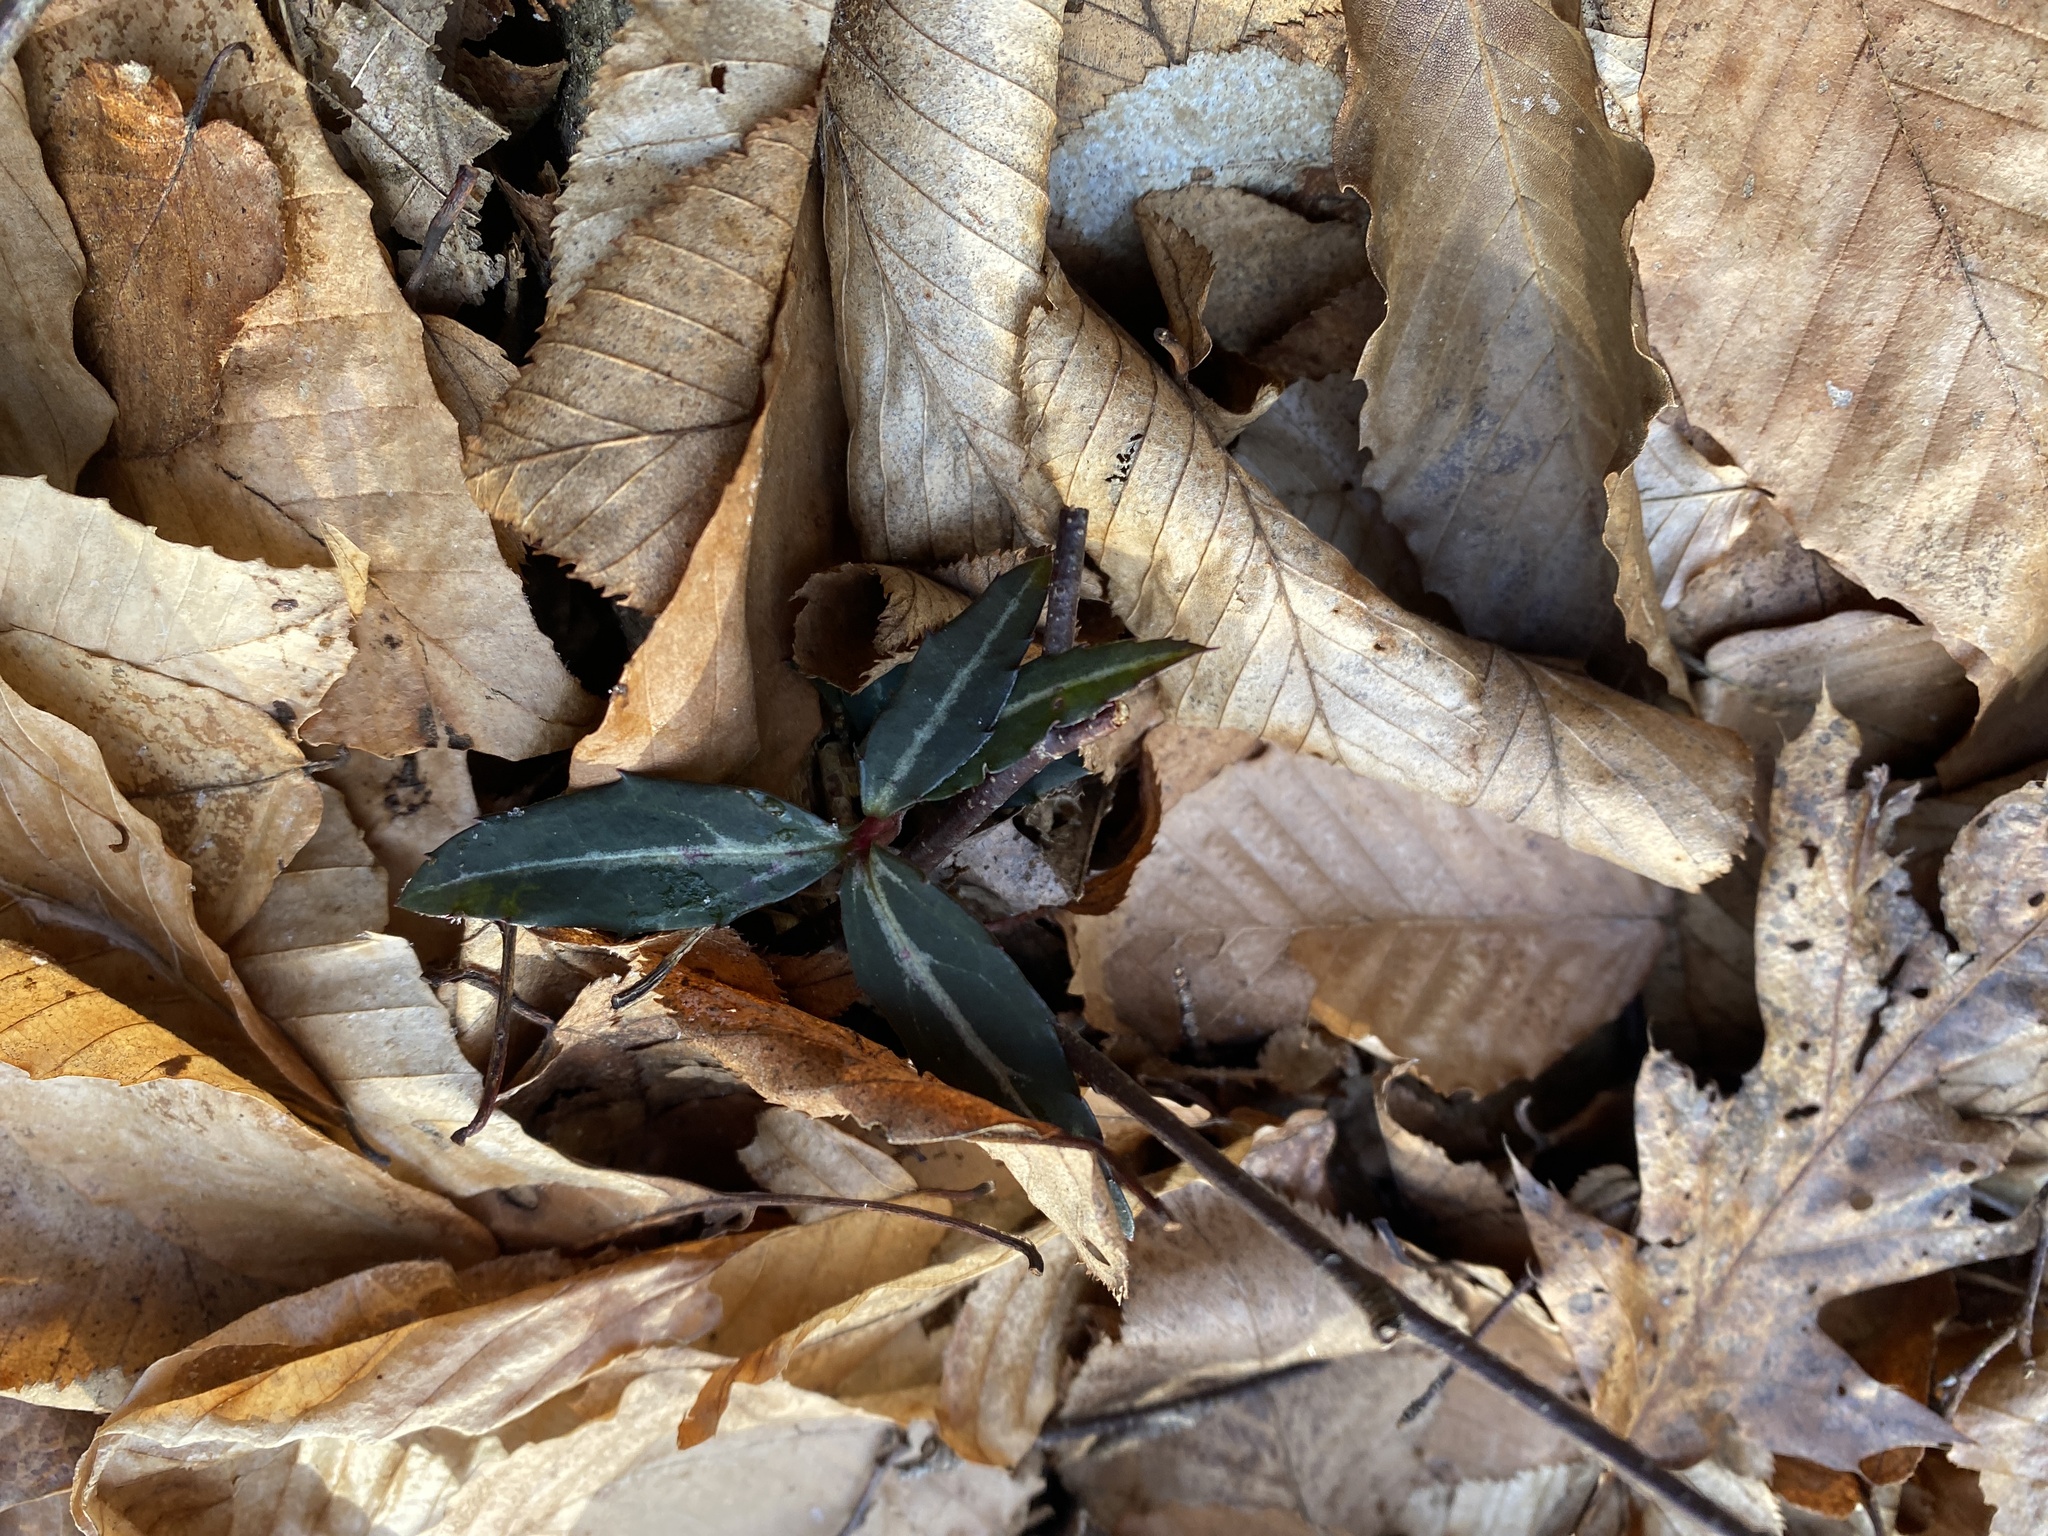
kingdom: Plantae
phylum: Tracheophyta
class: Magnoliopsida
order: Ericales
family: Ericaceae
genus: Chimaphila
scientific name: Chimaphila maculata
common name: Spotted pipsissewa
